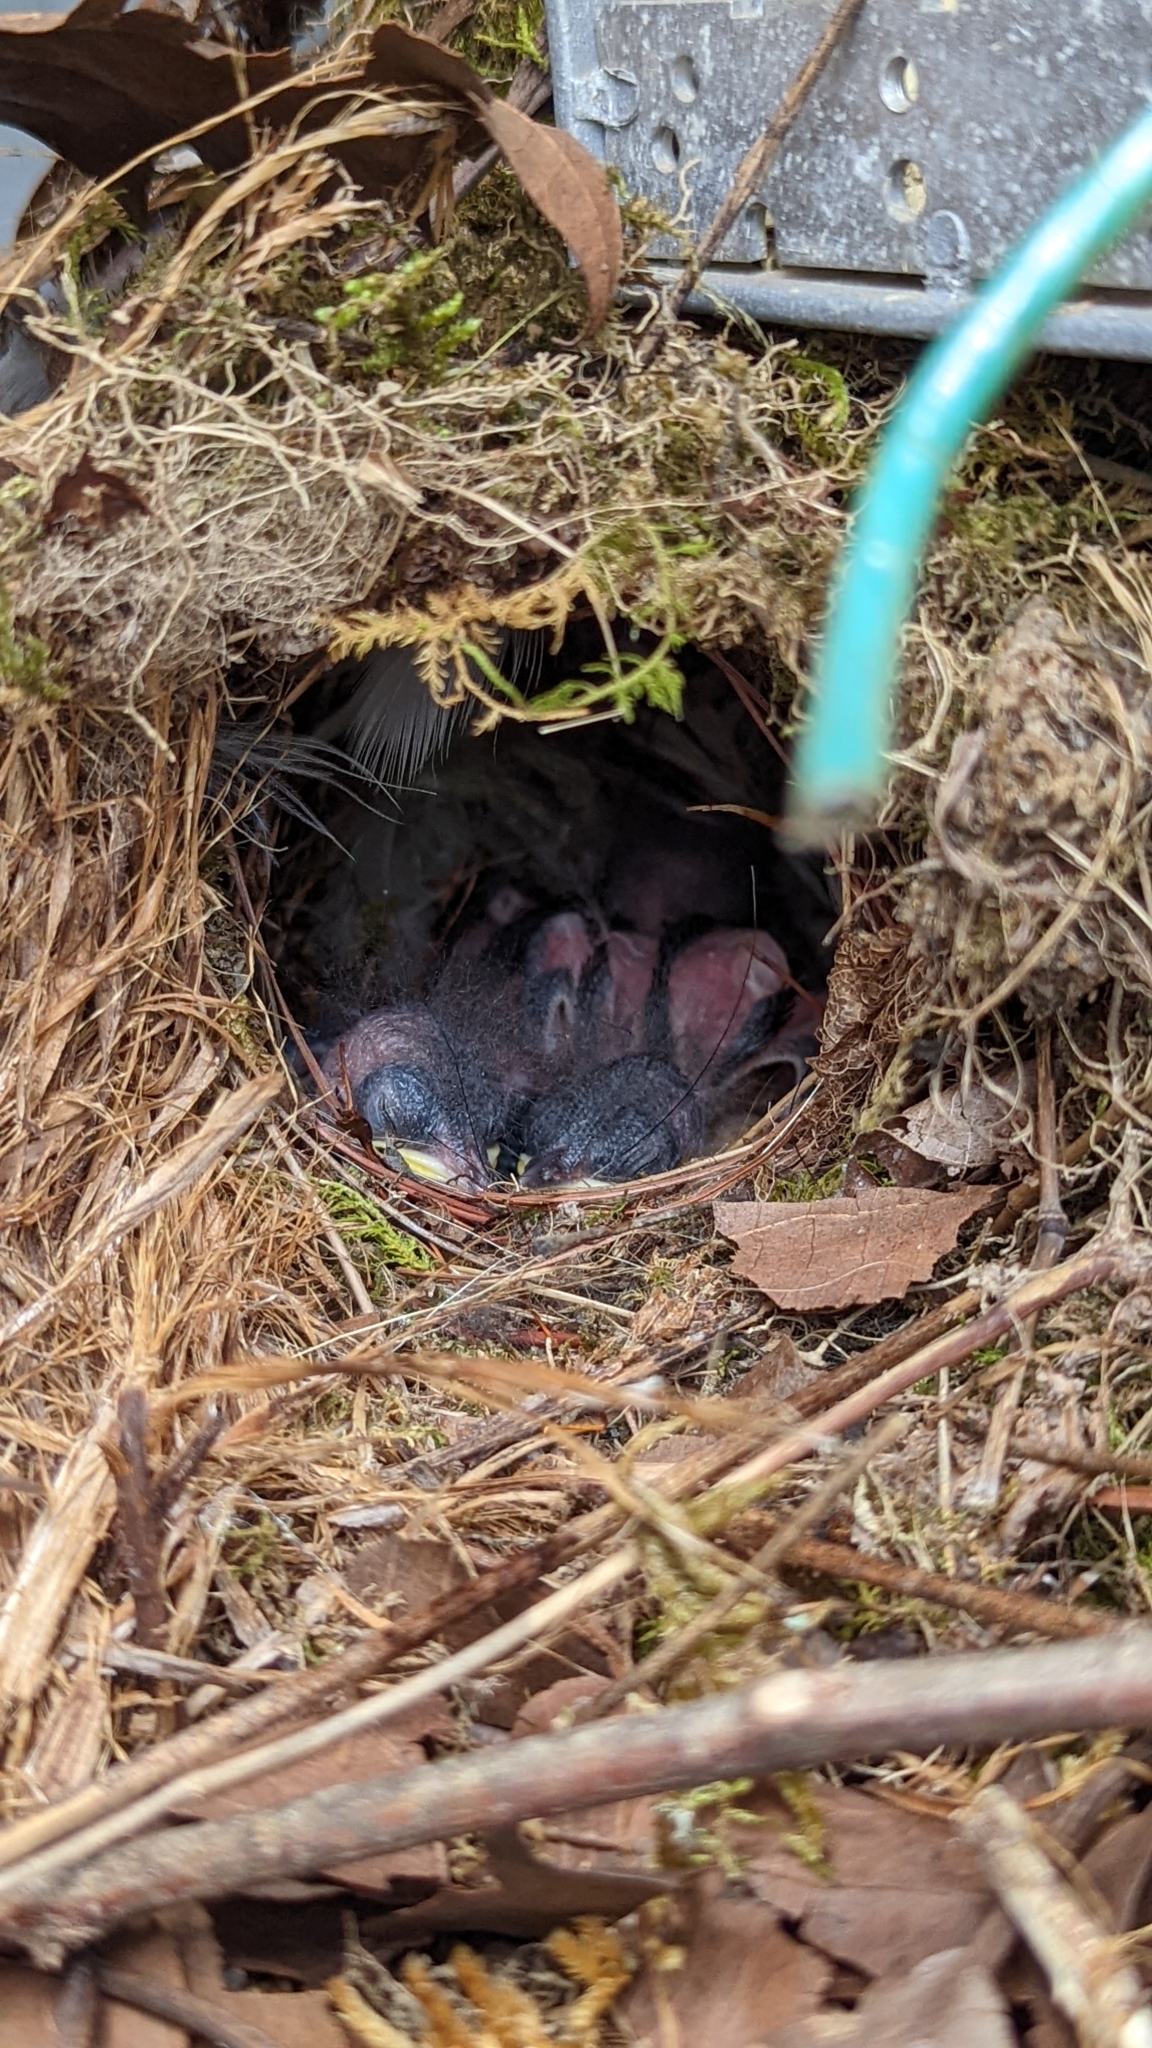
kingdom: Animalia
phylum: Chordata
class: Aves
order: Passeriformes
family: Troglodytidae
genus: Thryothorus
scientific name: Thryothorus ludovicianus
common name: Carolina wren
